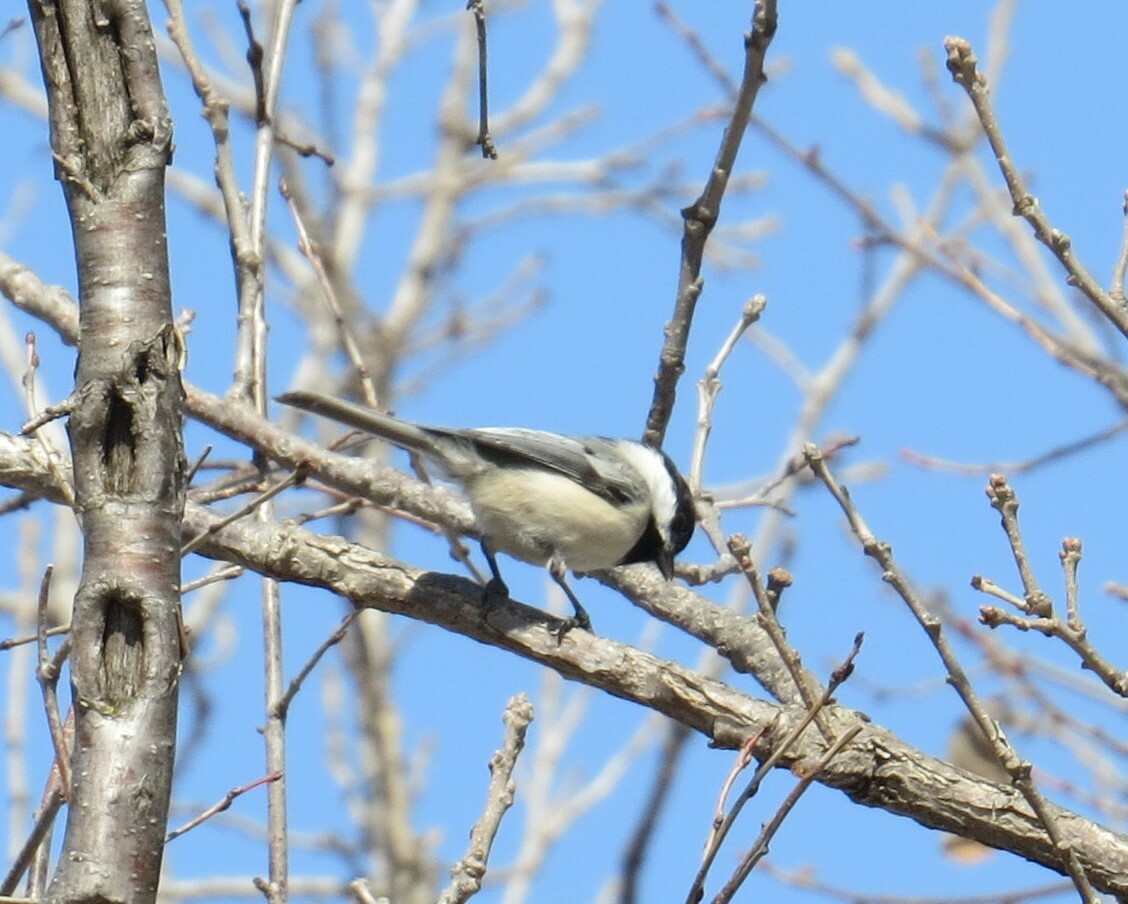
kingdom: Animalia
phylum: Chordata
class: Aves
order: Passeriformes
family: Paridae
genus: Poecile
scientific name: Poecile atricapillus
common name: Black-capped chickadee
